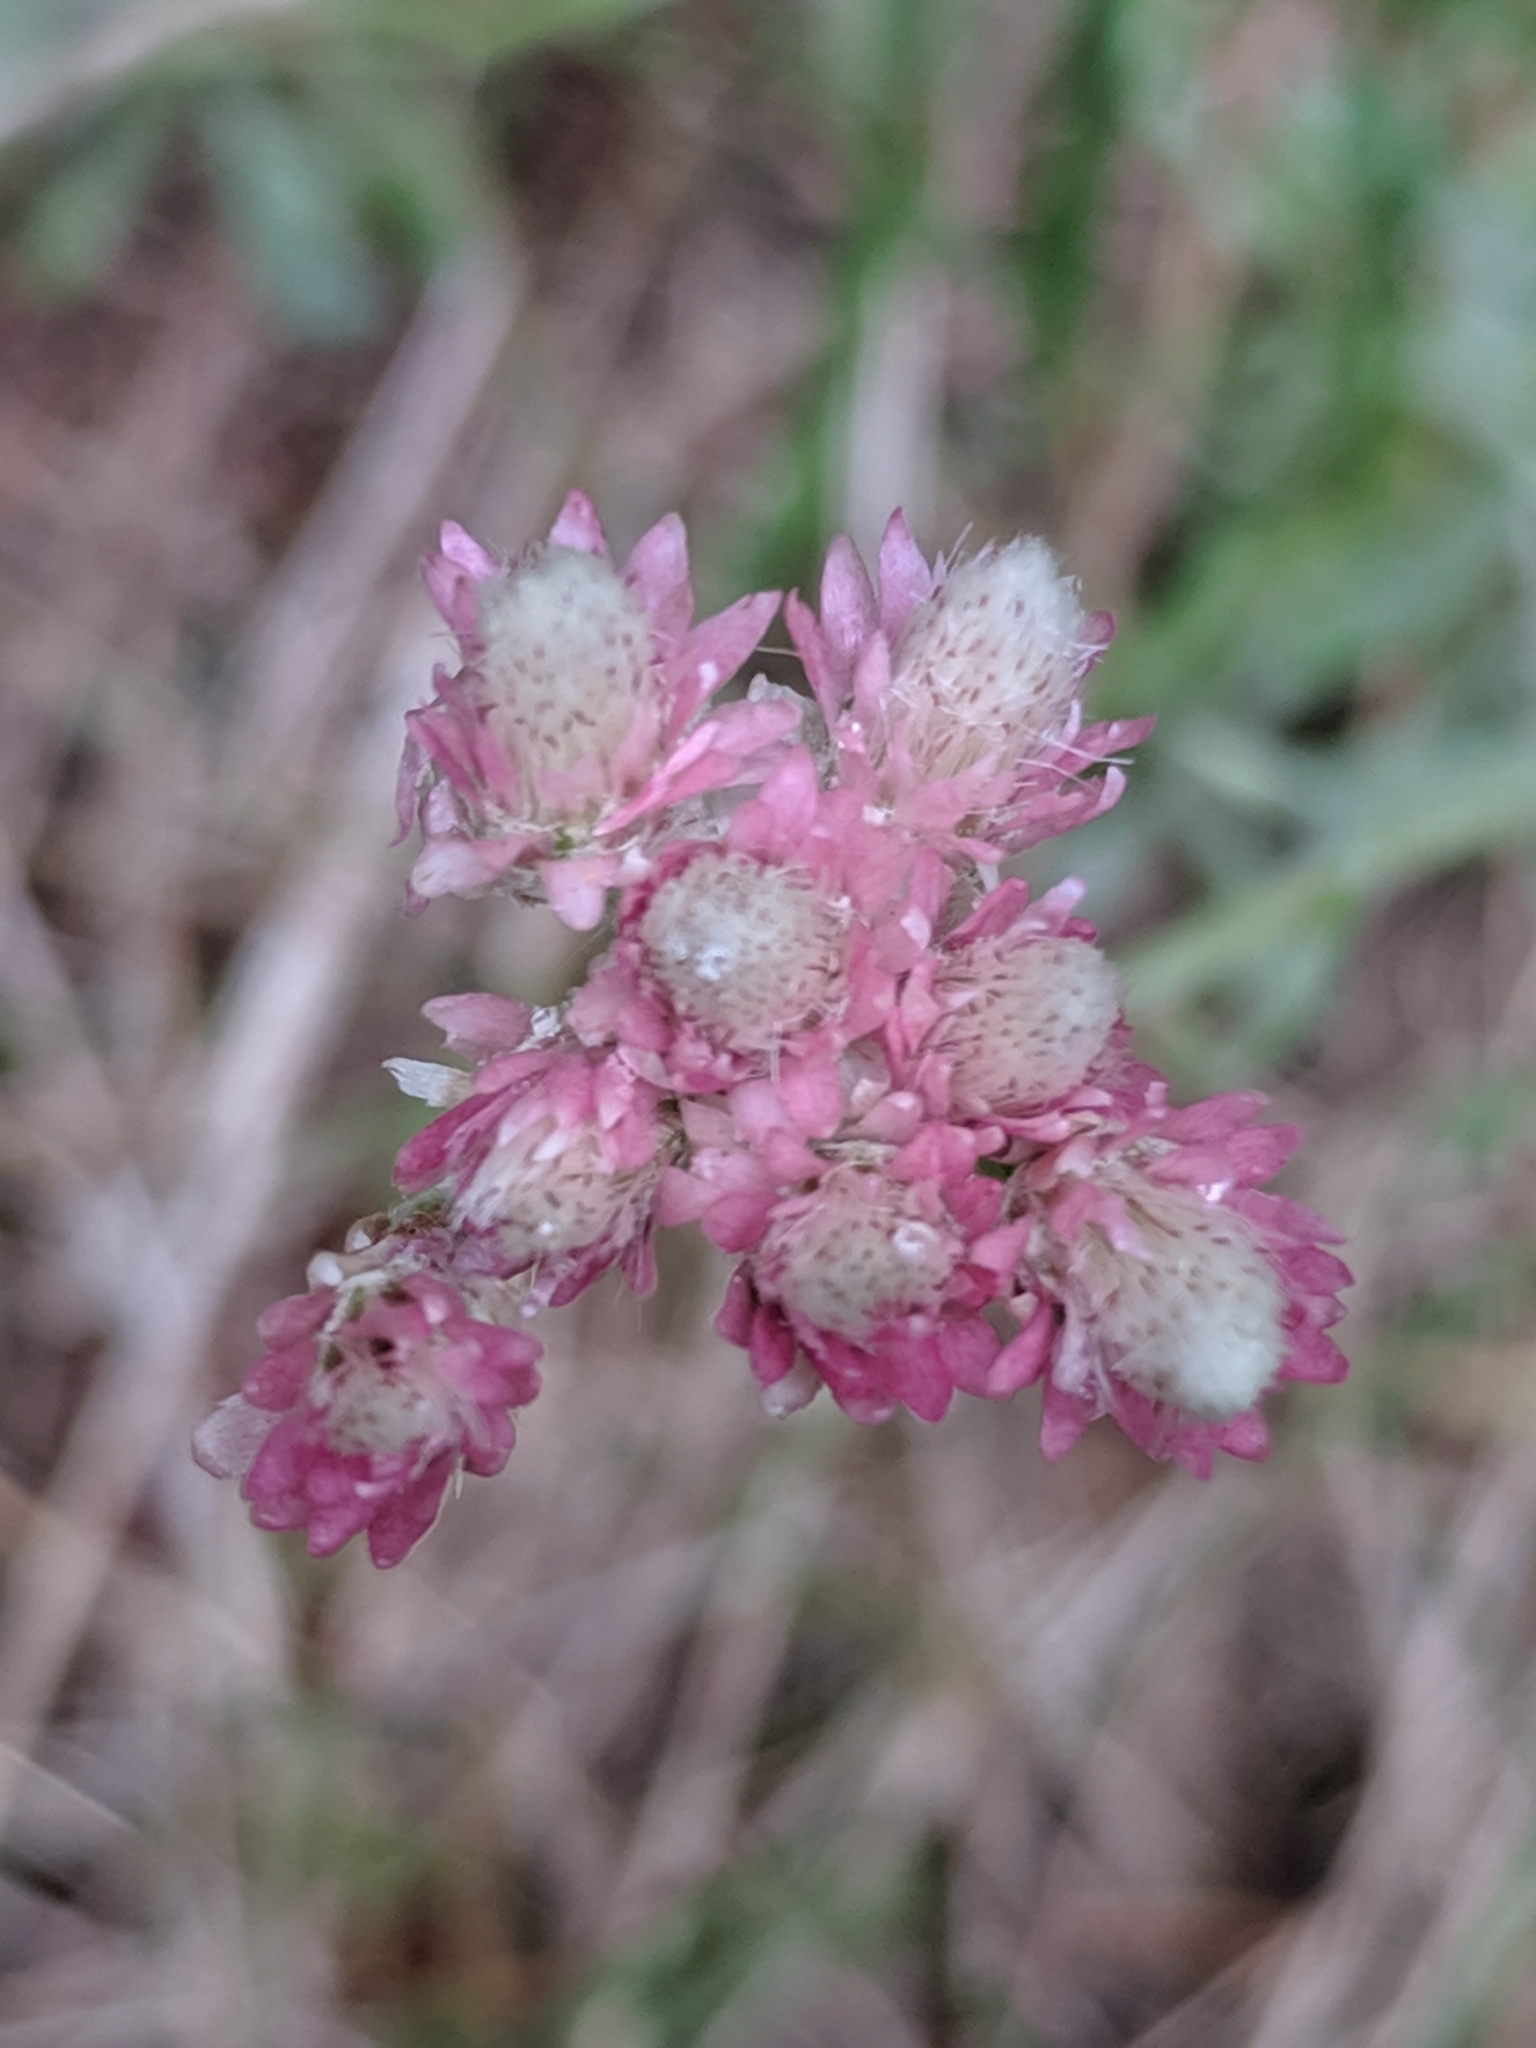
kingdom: Plantae
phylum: Tracheophyta
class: Magnoliopsida
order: Asterales
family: Asteraceae
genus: Antennaria
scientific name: Antennaria rosea
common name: Rosy pussytoes
